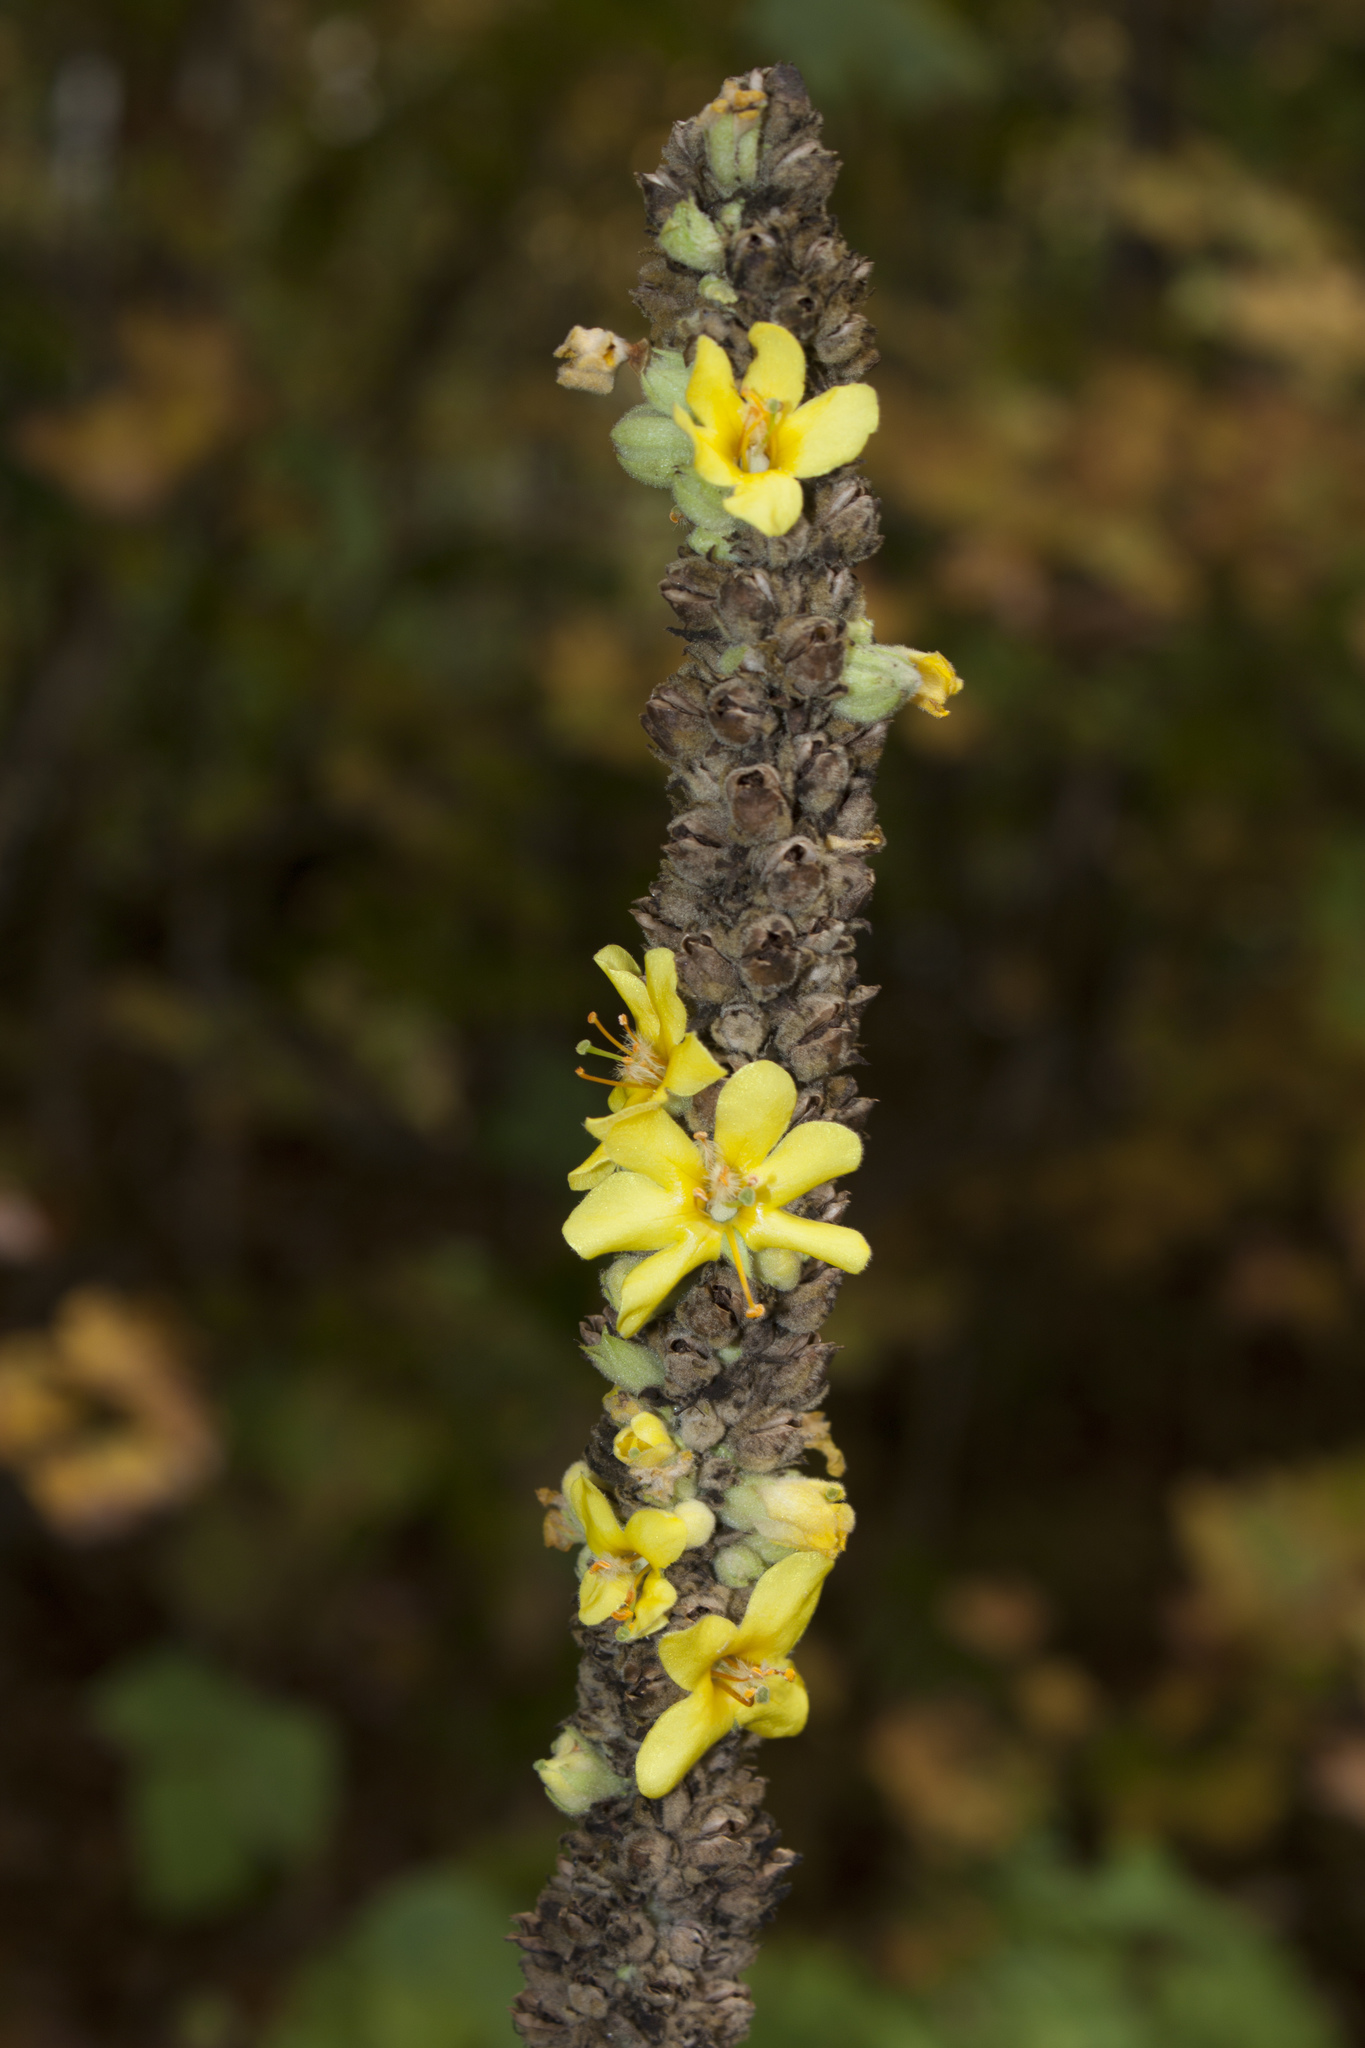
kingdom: Plantae
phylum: Tracheophyta
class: Magnoliopsida
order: Lamiales
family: Scrophulariaceae
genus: Verbascum
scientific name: Verbascum thapsus
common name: Common mullein
